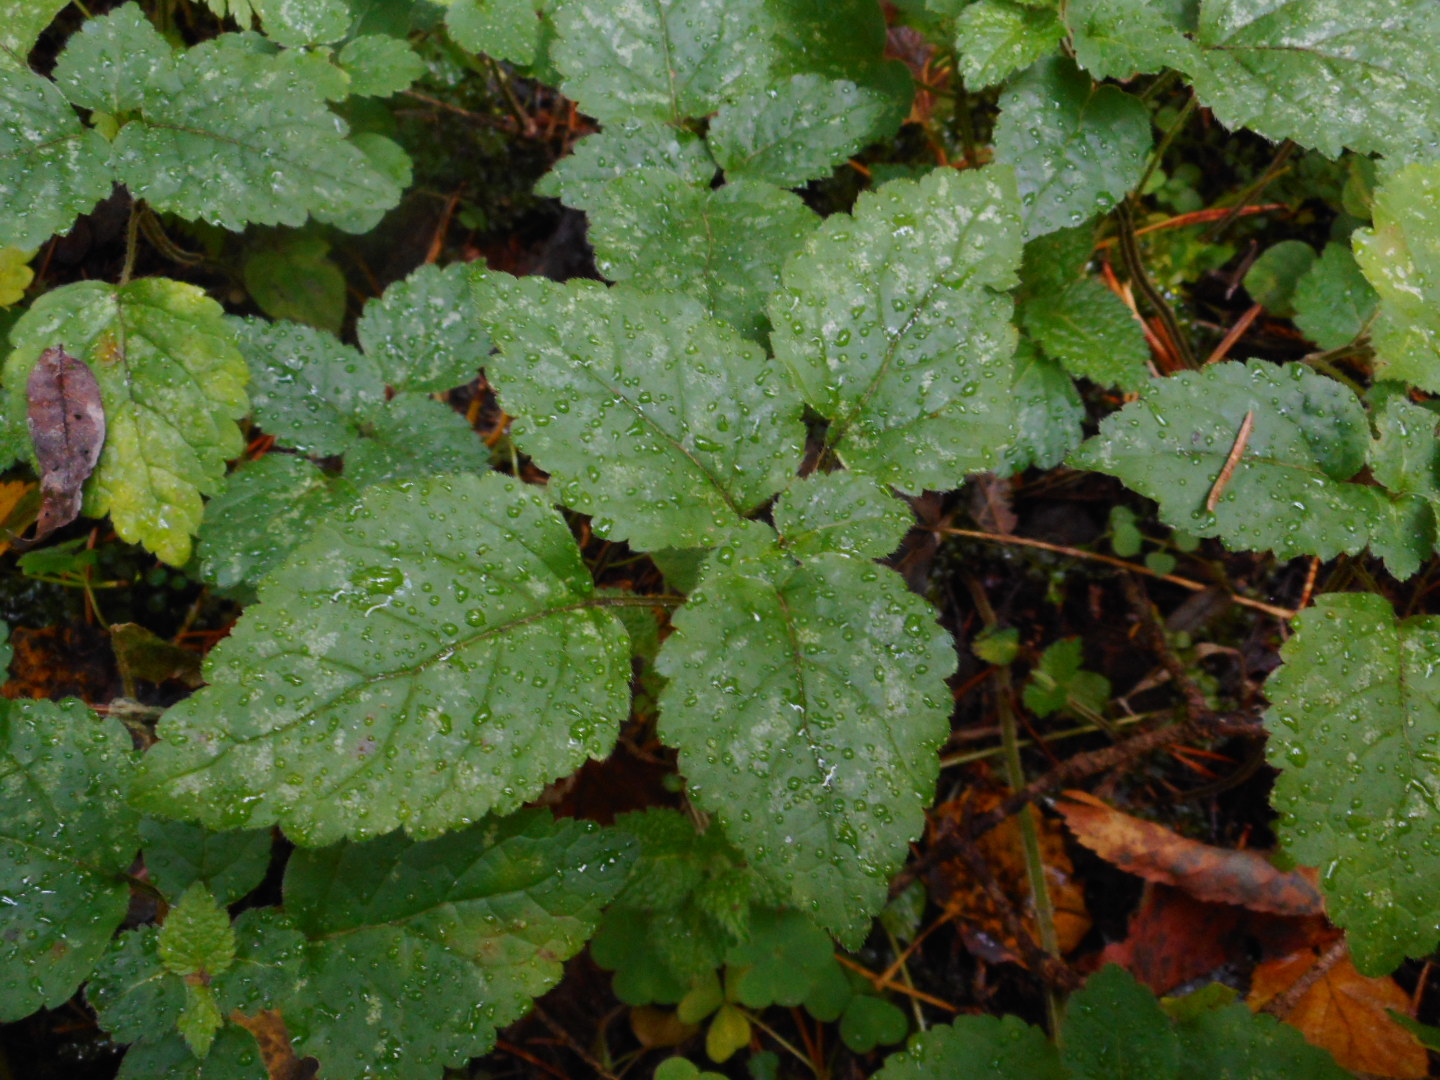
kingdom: Plantae
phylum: Tracheophyta
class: Magnoliopsida
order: Lamiales
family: Lamiaceae
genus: Lamium
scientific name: Lamium galeobdolon
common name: Yellow archangel
